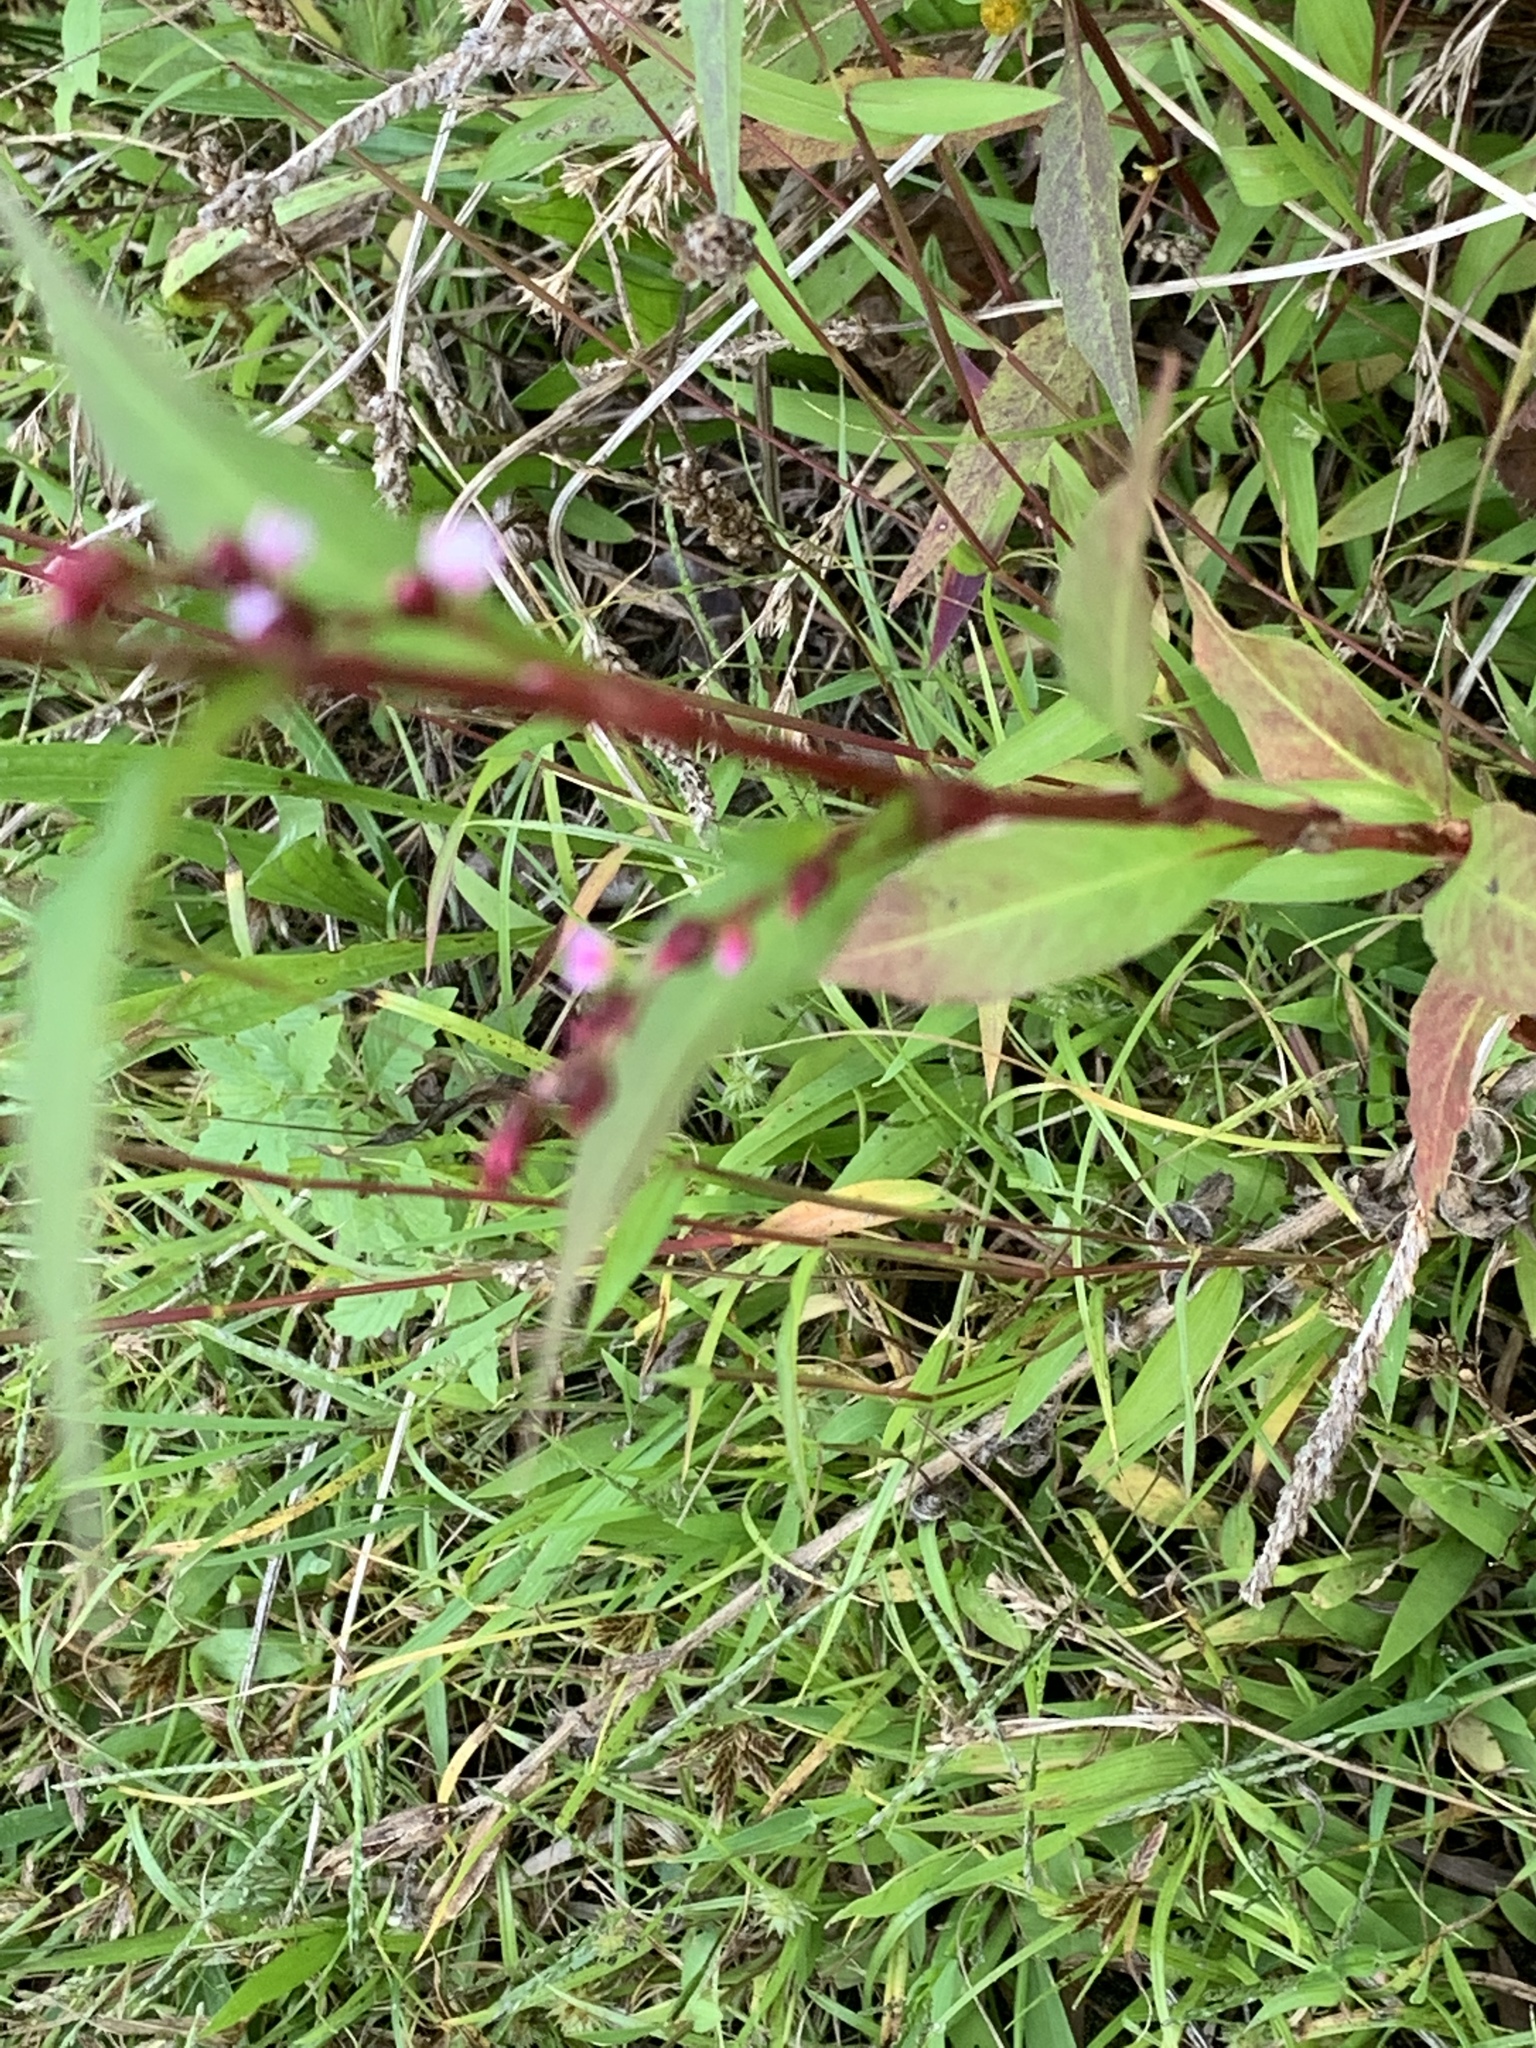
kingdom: Plantae
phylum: Tracheophyta
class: Magnoliopsida
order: Caryophyllales
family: Polygonaceae
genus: Persicaria
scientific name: Persicaria hydropiper
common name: Water-pepper
